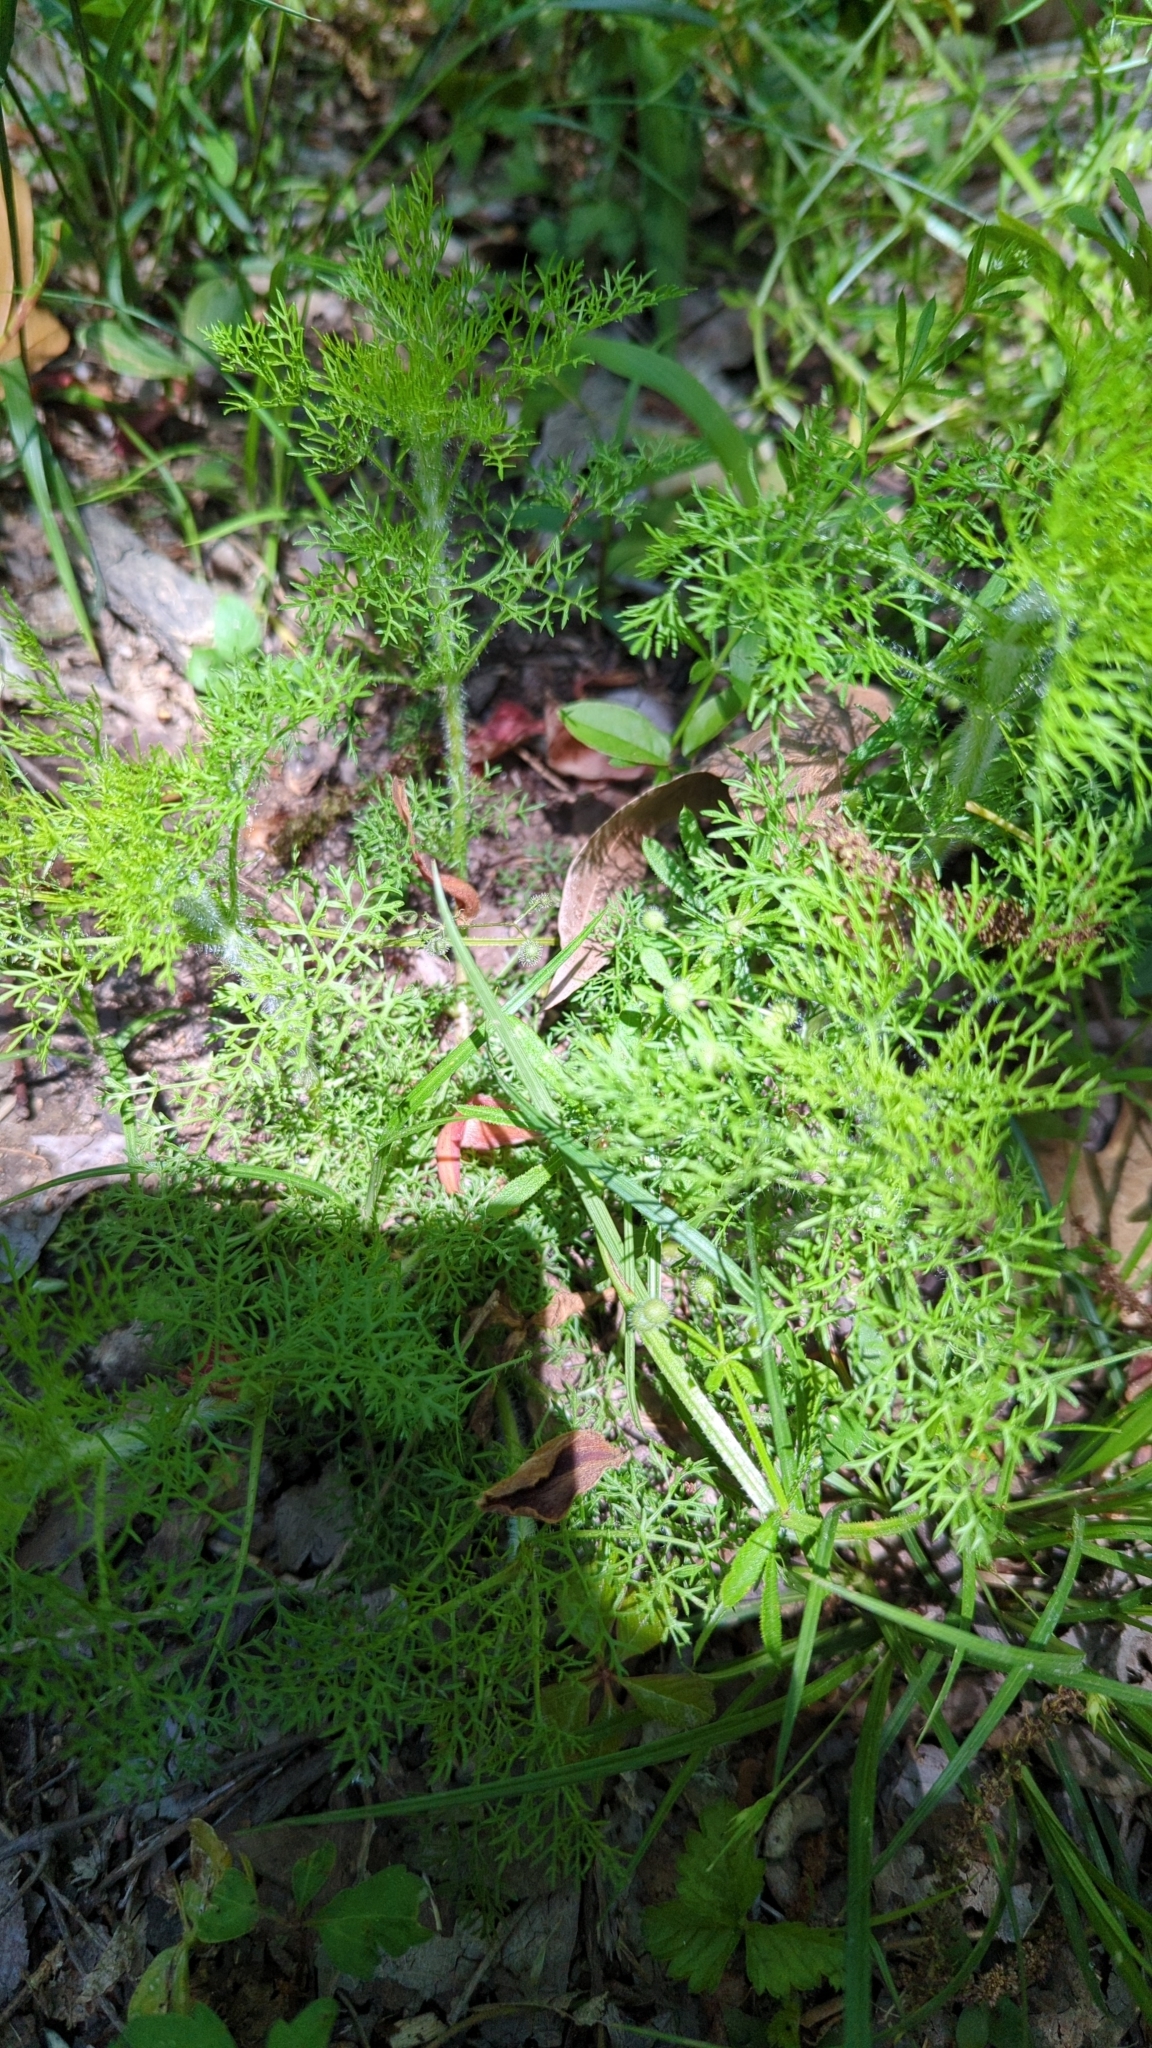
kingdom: Plantae
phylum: Tracheophyta
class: Magnoliopsida
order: Asterales
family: Asteraceae
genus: Eupatorium
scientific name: Eupatorium capillifolium
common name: Dog-fennel
